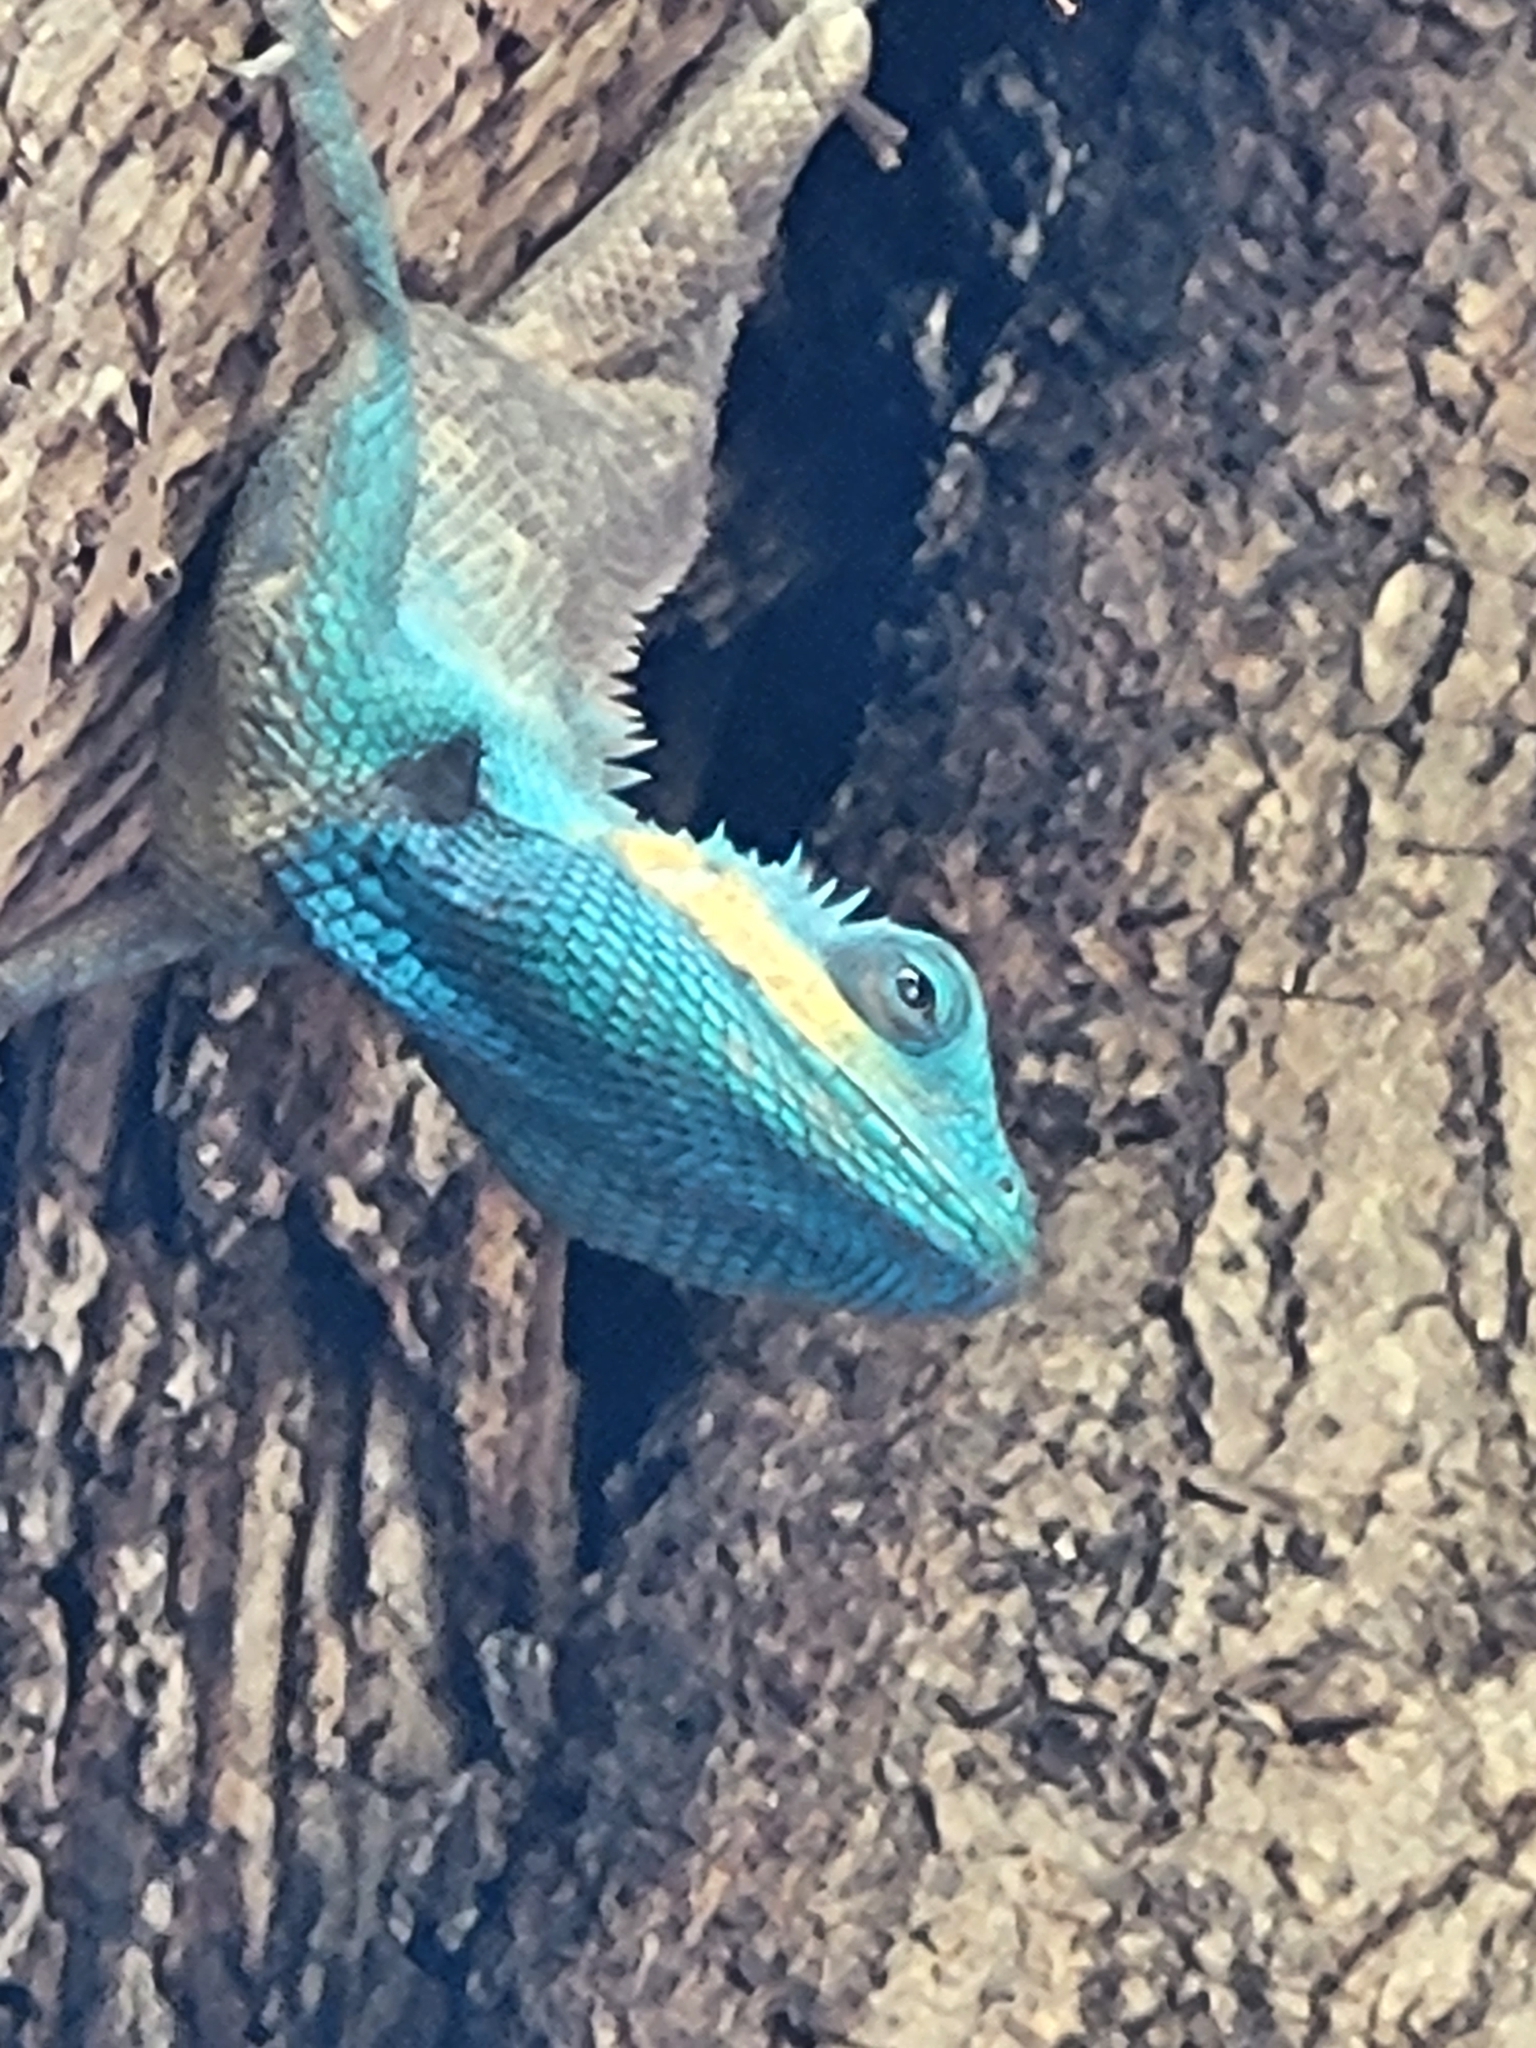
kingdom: Animalia
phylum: Chordata
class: Squamata
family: Agamidae
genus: Calotes
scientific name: Calotes bachae
